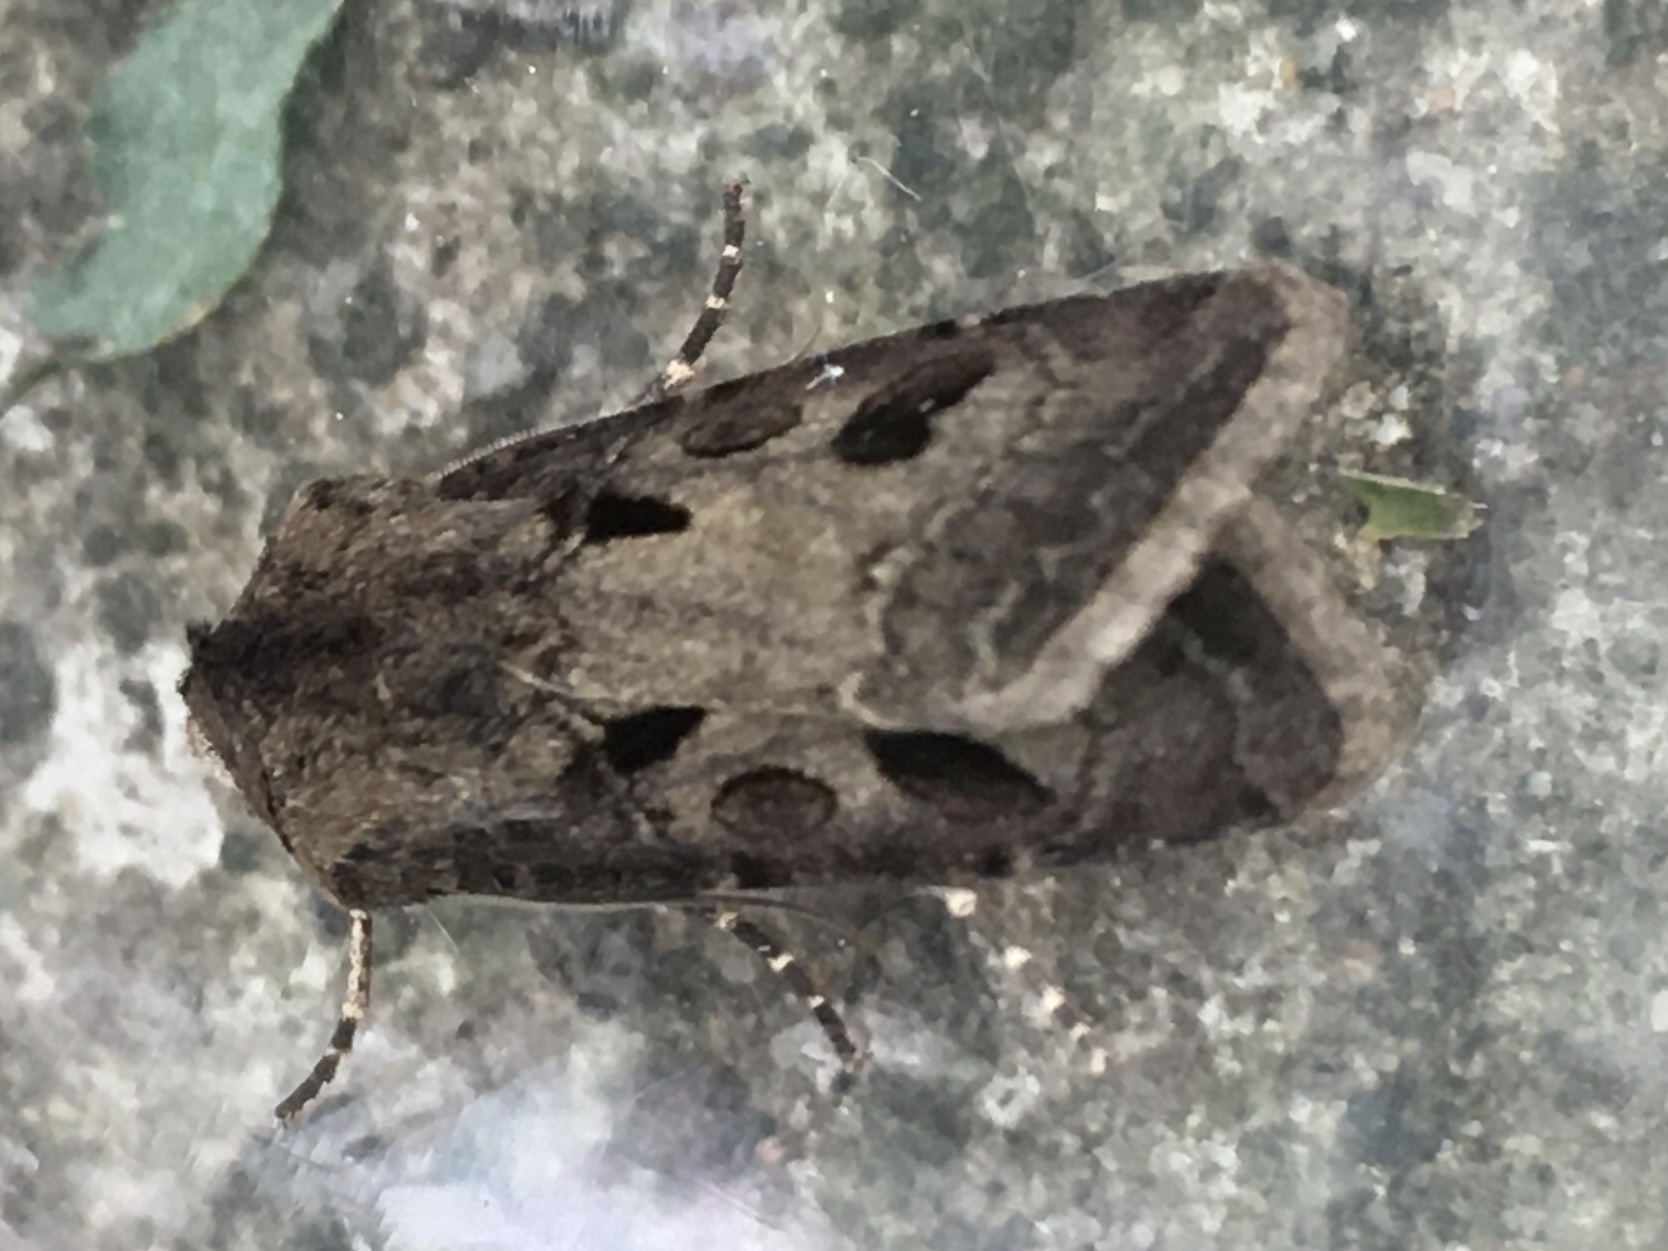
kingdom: Animalia
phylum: Arthropoda
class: Insecta
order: Lepidoptera
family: Noctuidae
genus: Agrotis
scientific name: Agrotis exclamationis
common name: Heart and dart
